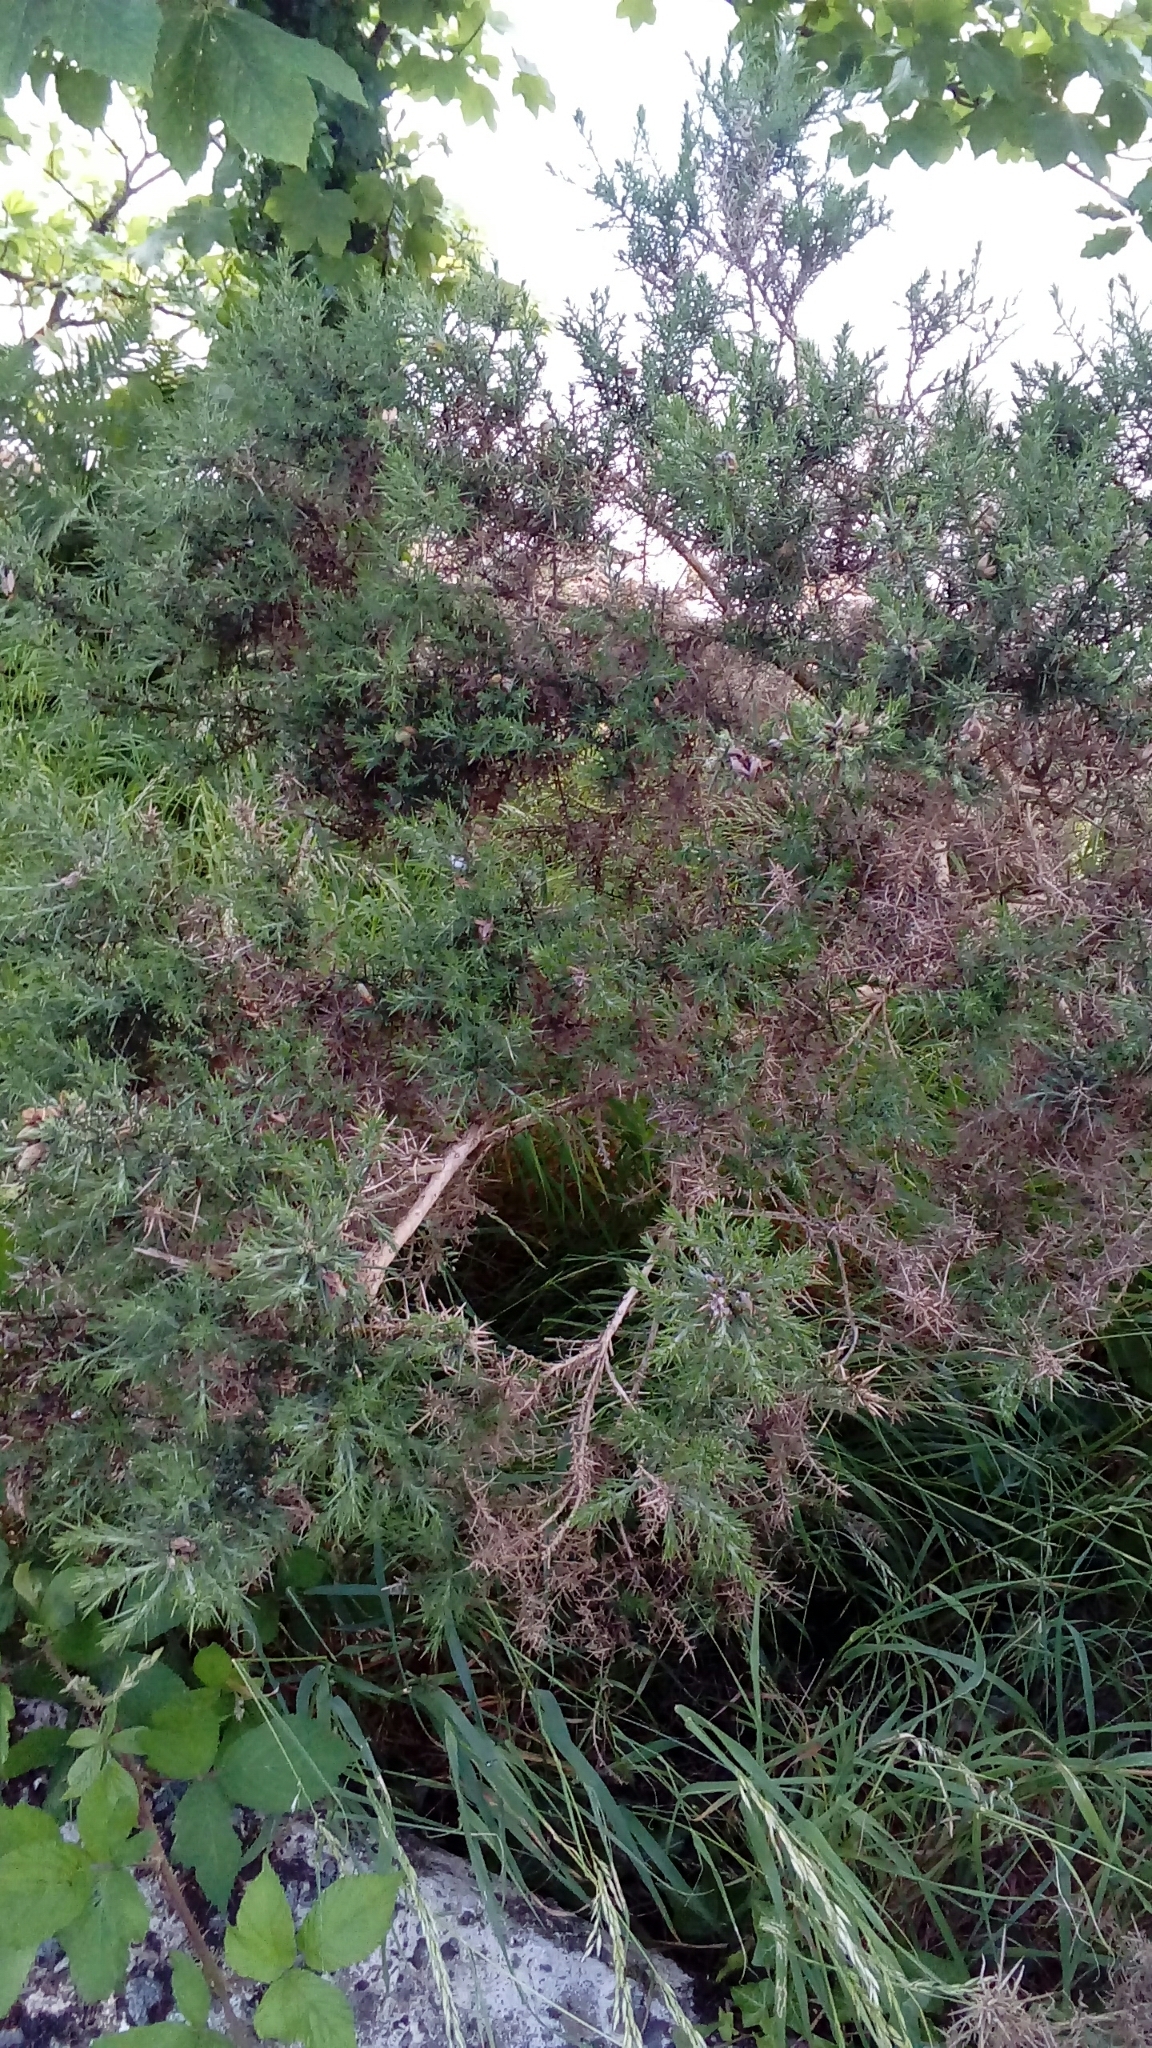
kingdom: Plantae
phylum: Tracheophyta
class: Magnoliopsida
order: Fabales
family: Fabaceae
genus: Ulex
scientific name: Ulex europaeus
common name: Common gorse
